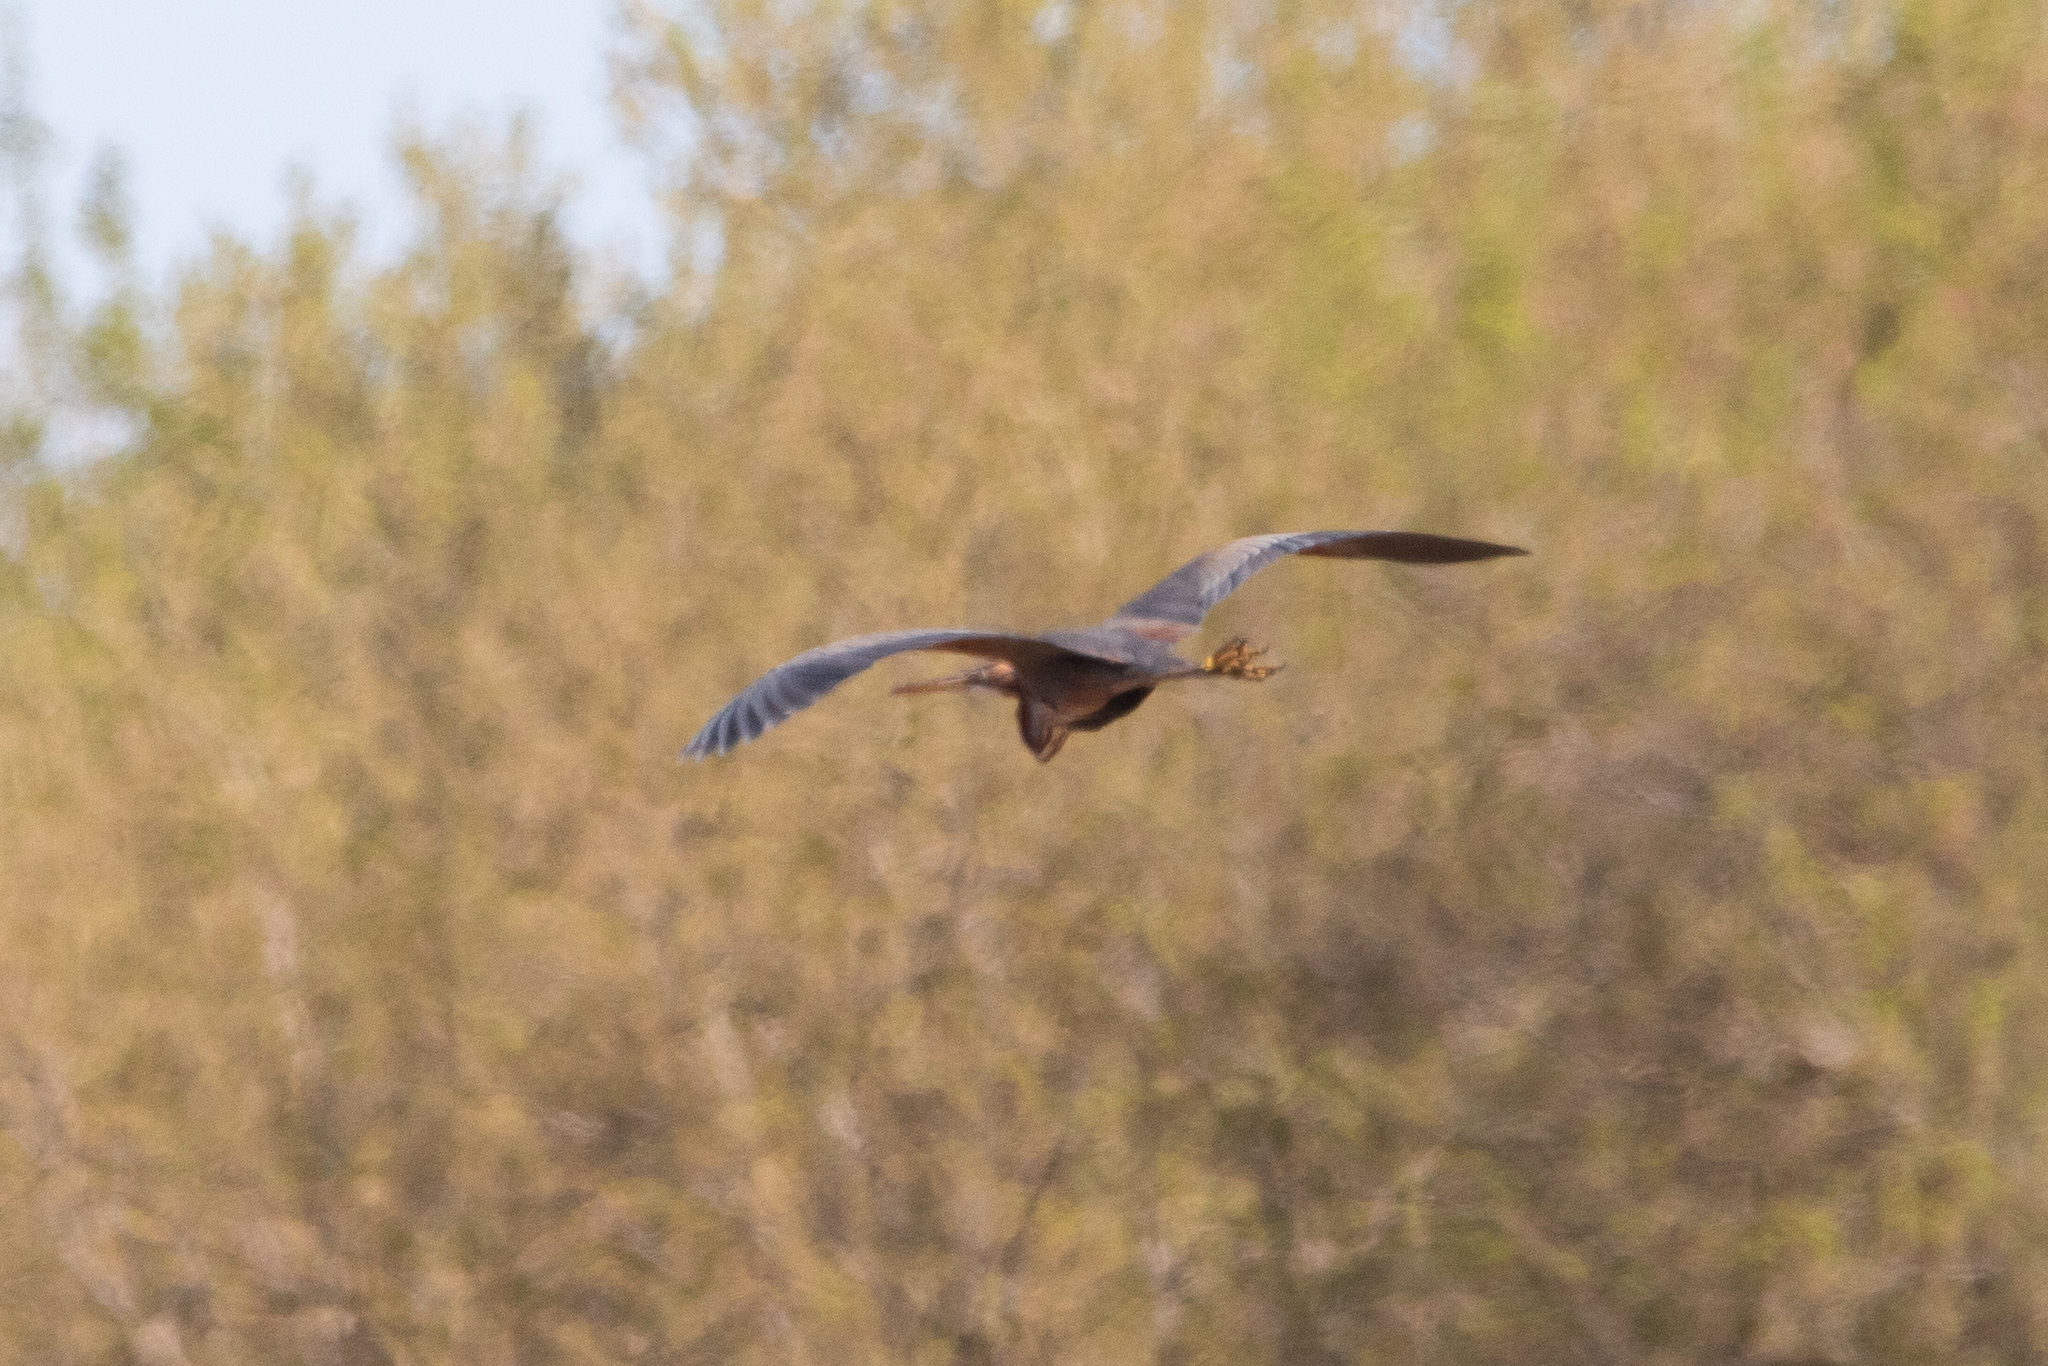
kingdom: Animalia
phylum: Chordata
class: Aves
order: Pelecaniformes
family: Ardeidae
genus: Ardea
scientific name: Ardea purpurea
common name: Purple heron
